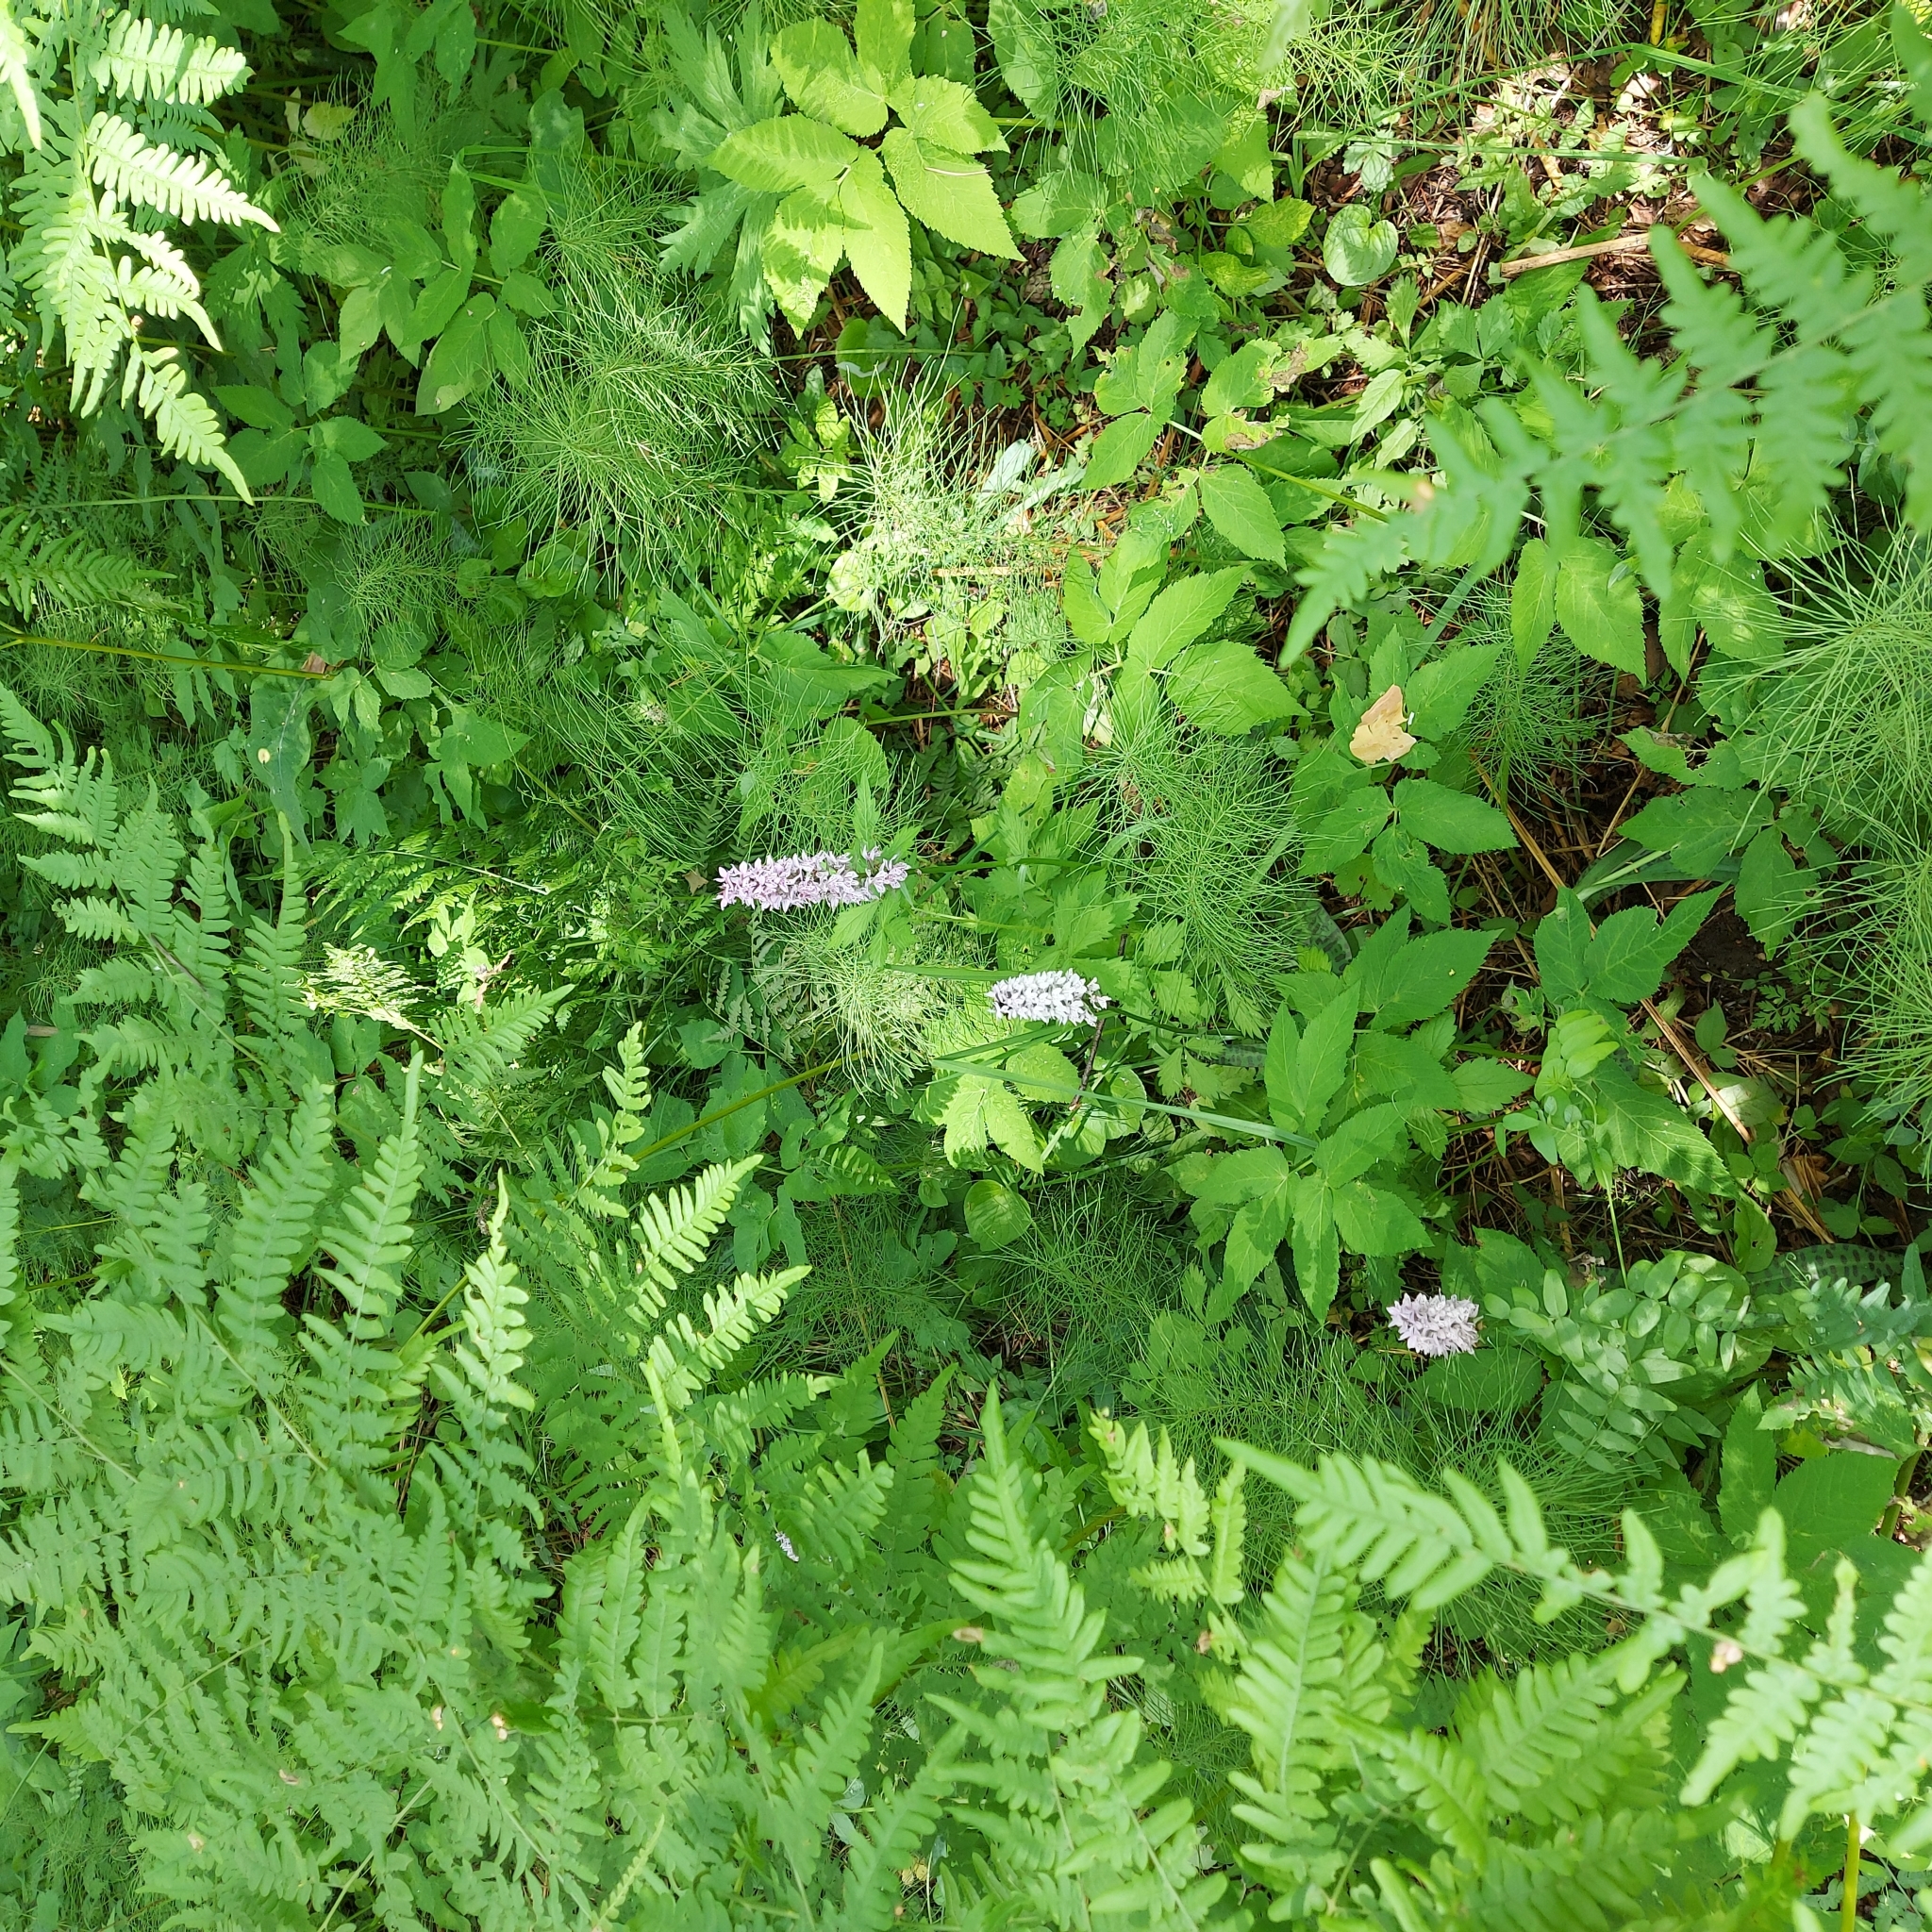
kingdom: Plantae
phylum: Tracheophyta
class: Liliopsida
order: Asparagales
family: Orchidaceae
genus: Dactylorhiza
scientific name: Dactylorhiza maculata
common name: Heath spotted-orchid
